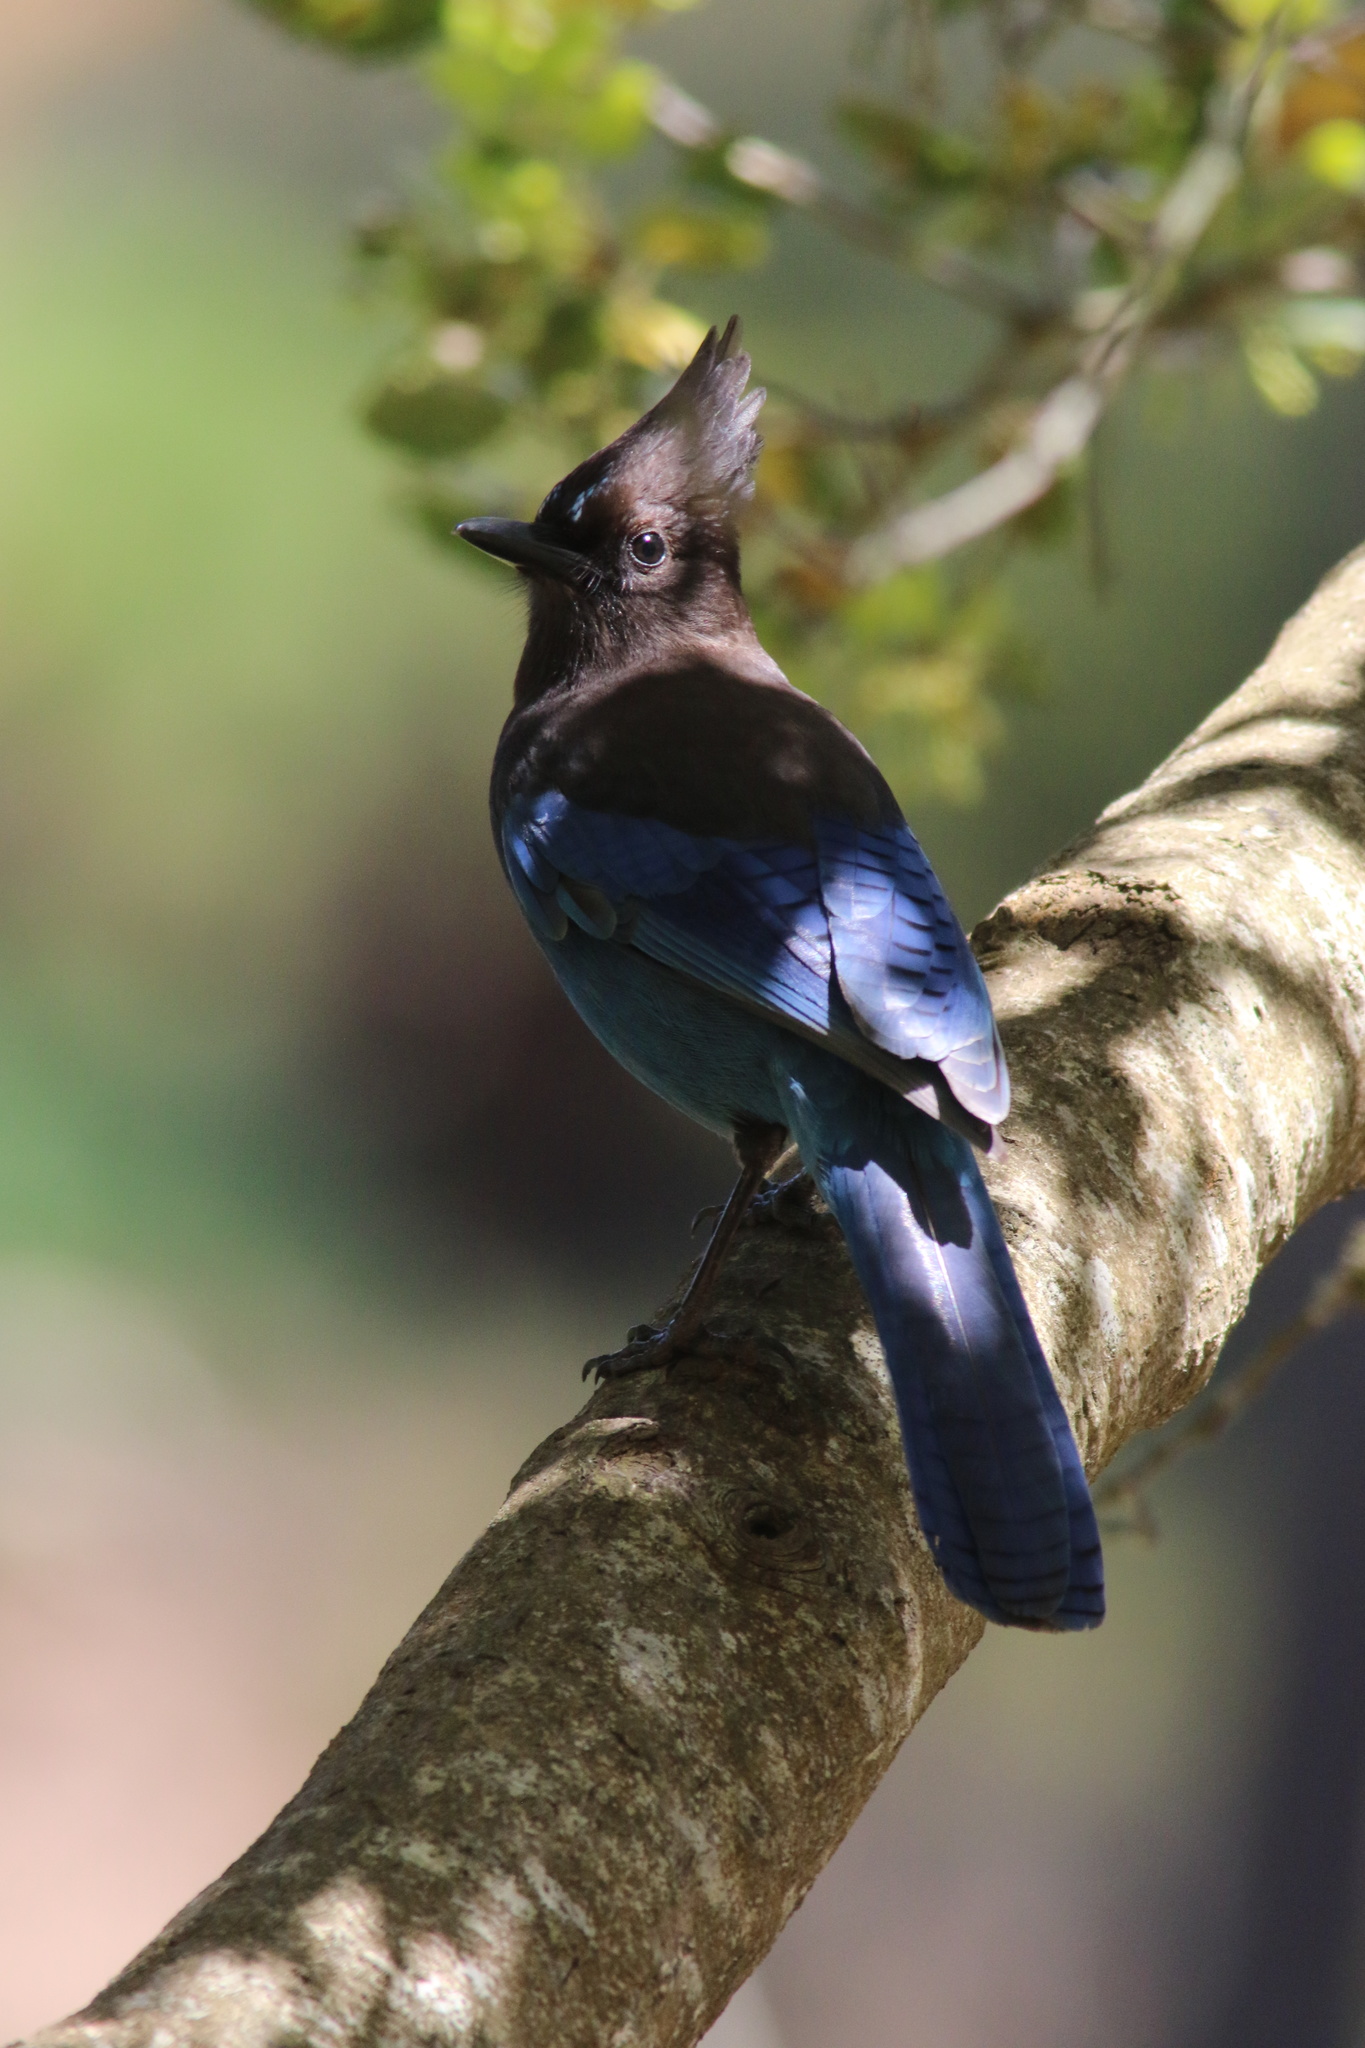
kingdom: Animalia
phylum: Chordata
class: Aves
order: Passeriformes
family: Corvidae
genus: Cyanocitta
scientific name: Cyanocitta stelleri
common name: Steller's jay
